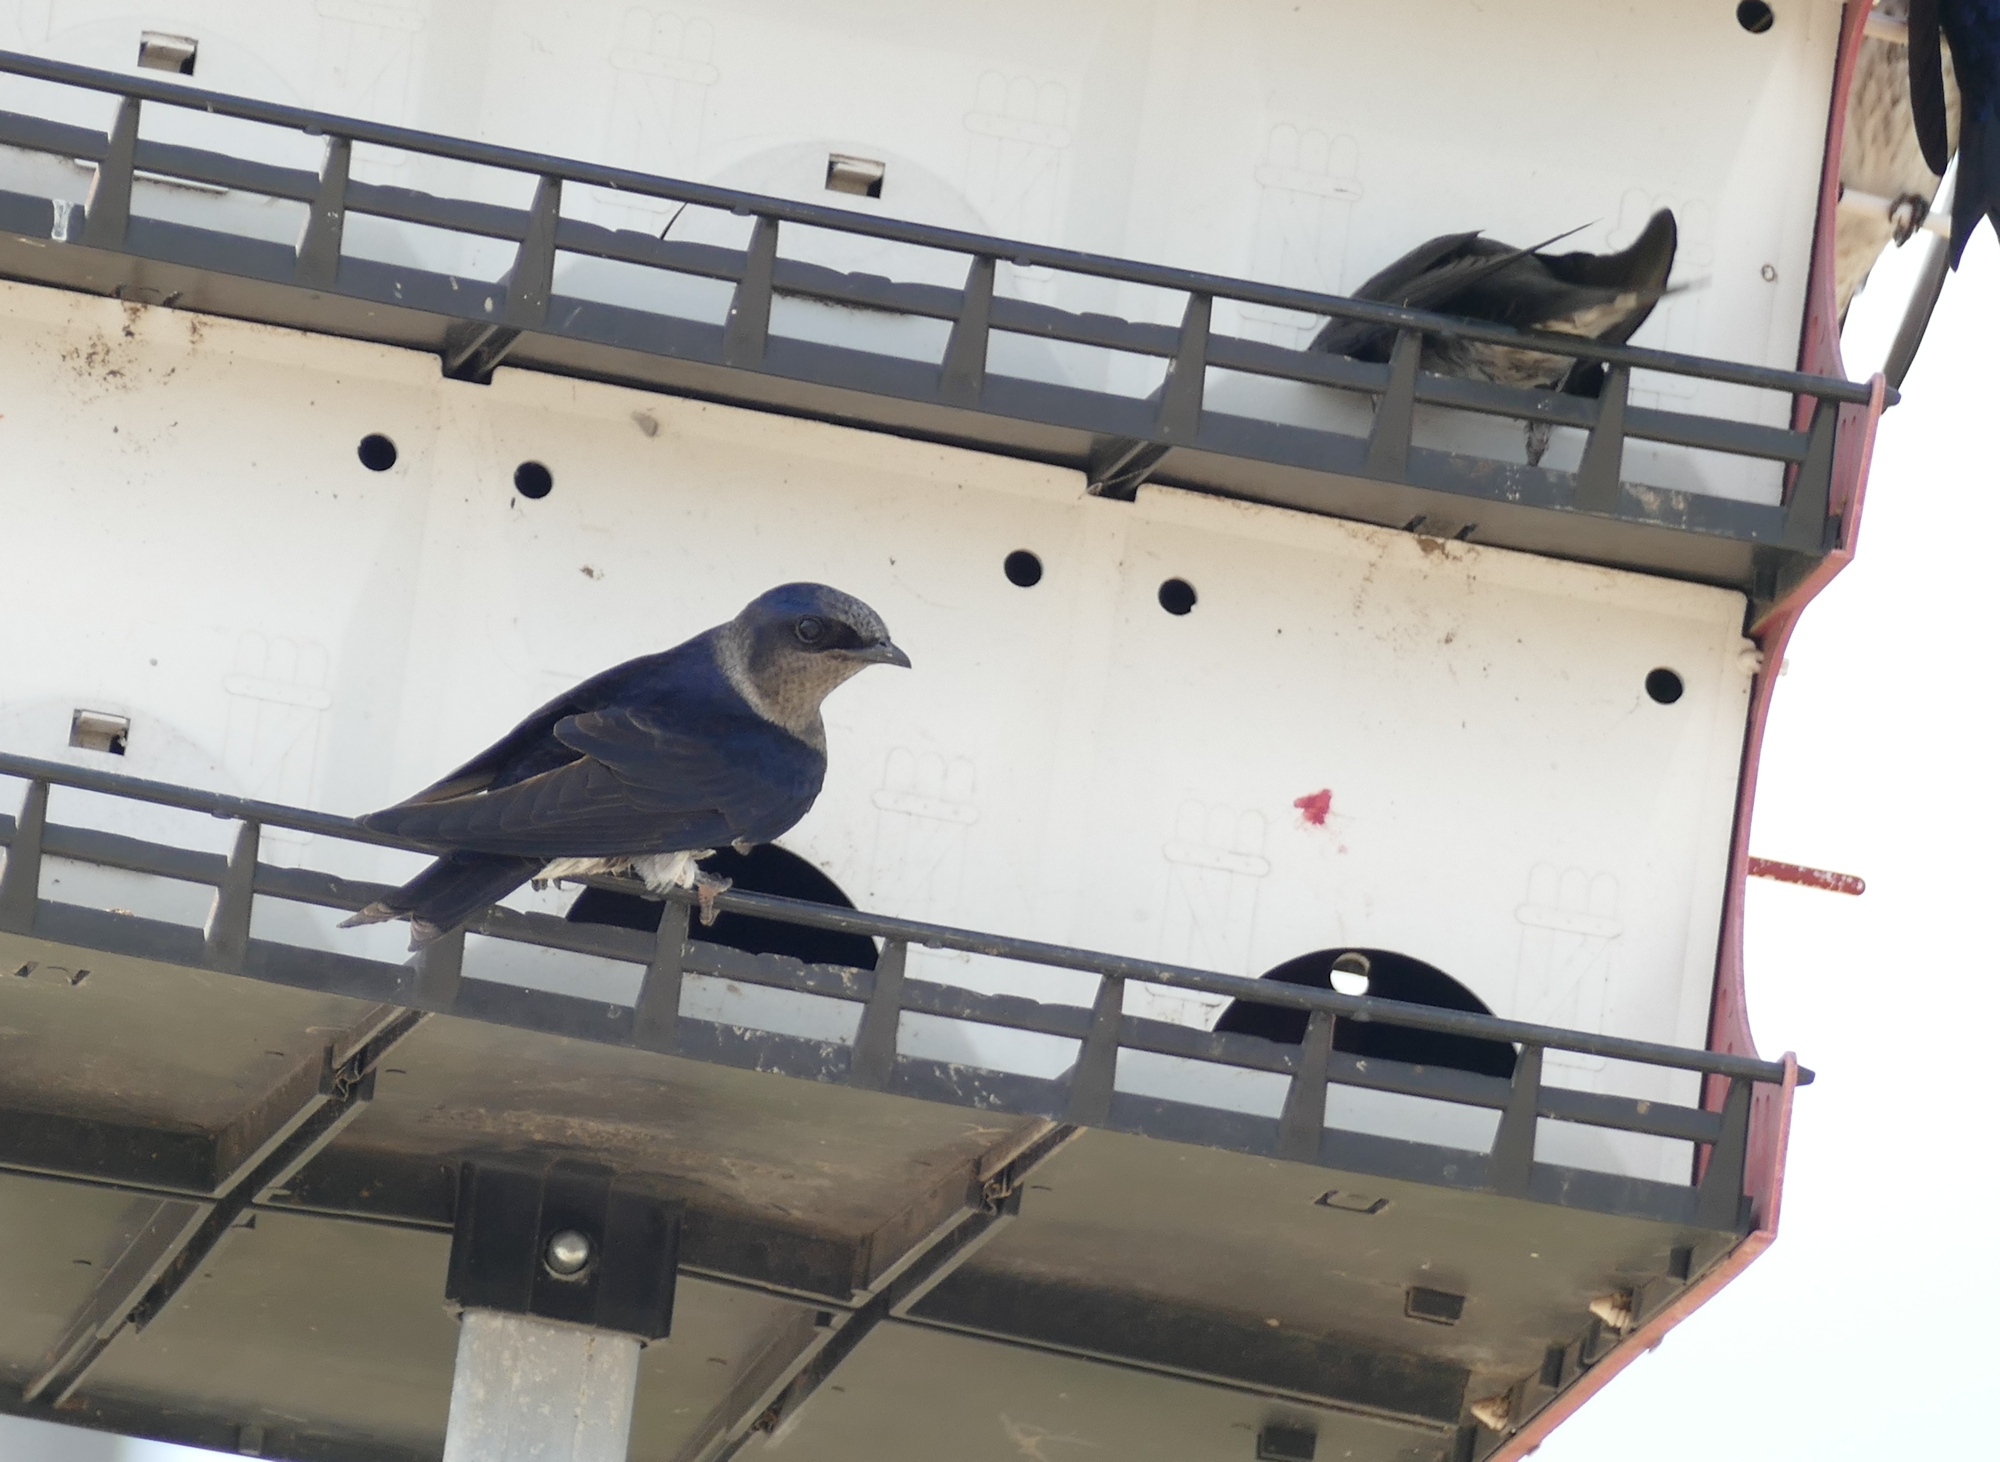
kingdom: Animalia
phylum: Chordata
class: Aves
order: Passeriformes
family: Hirundinidae
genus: Progne
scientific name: Progne subis
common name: Purple martin
